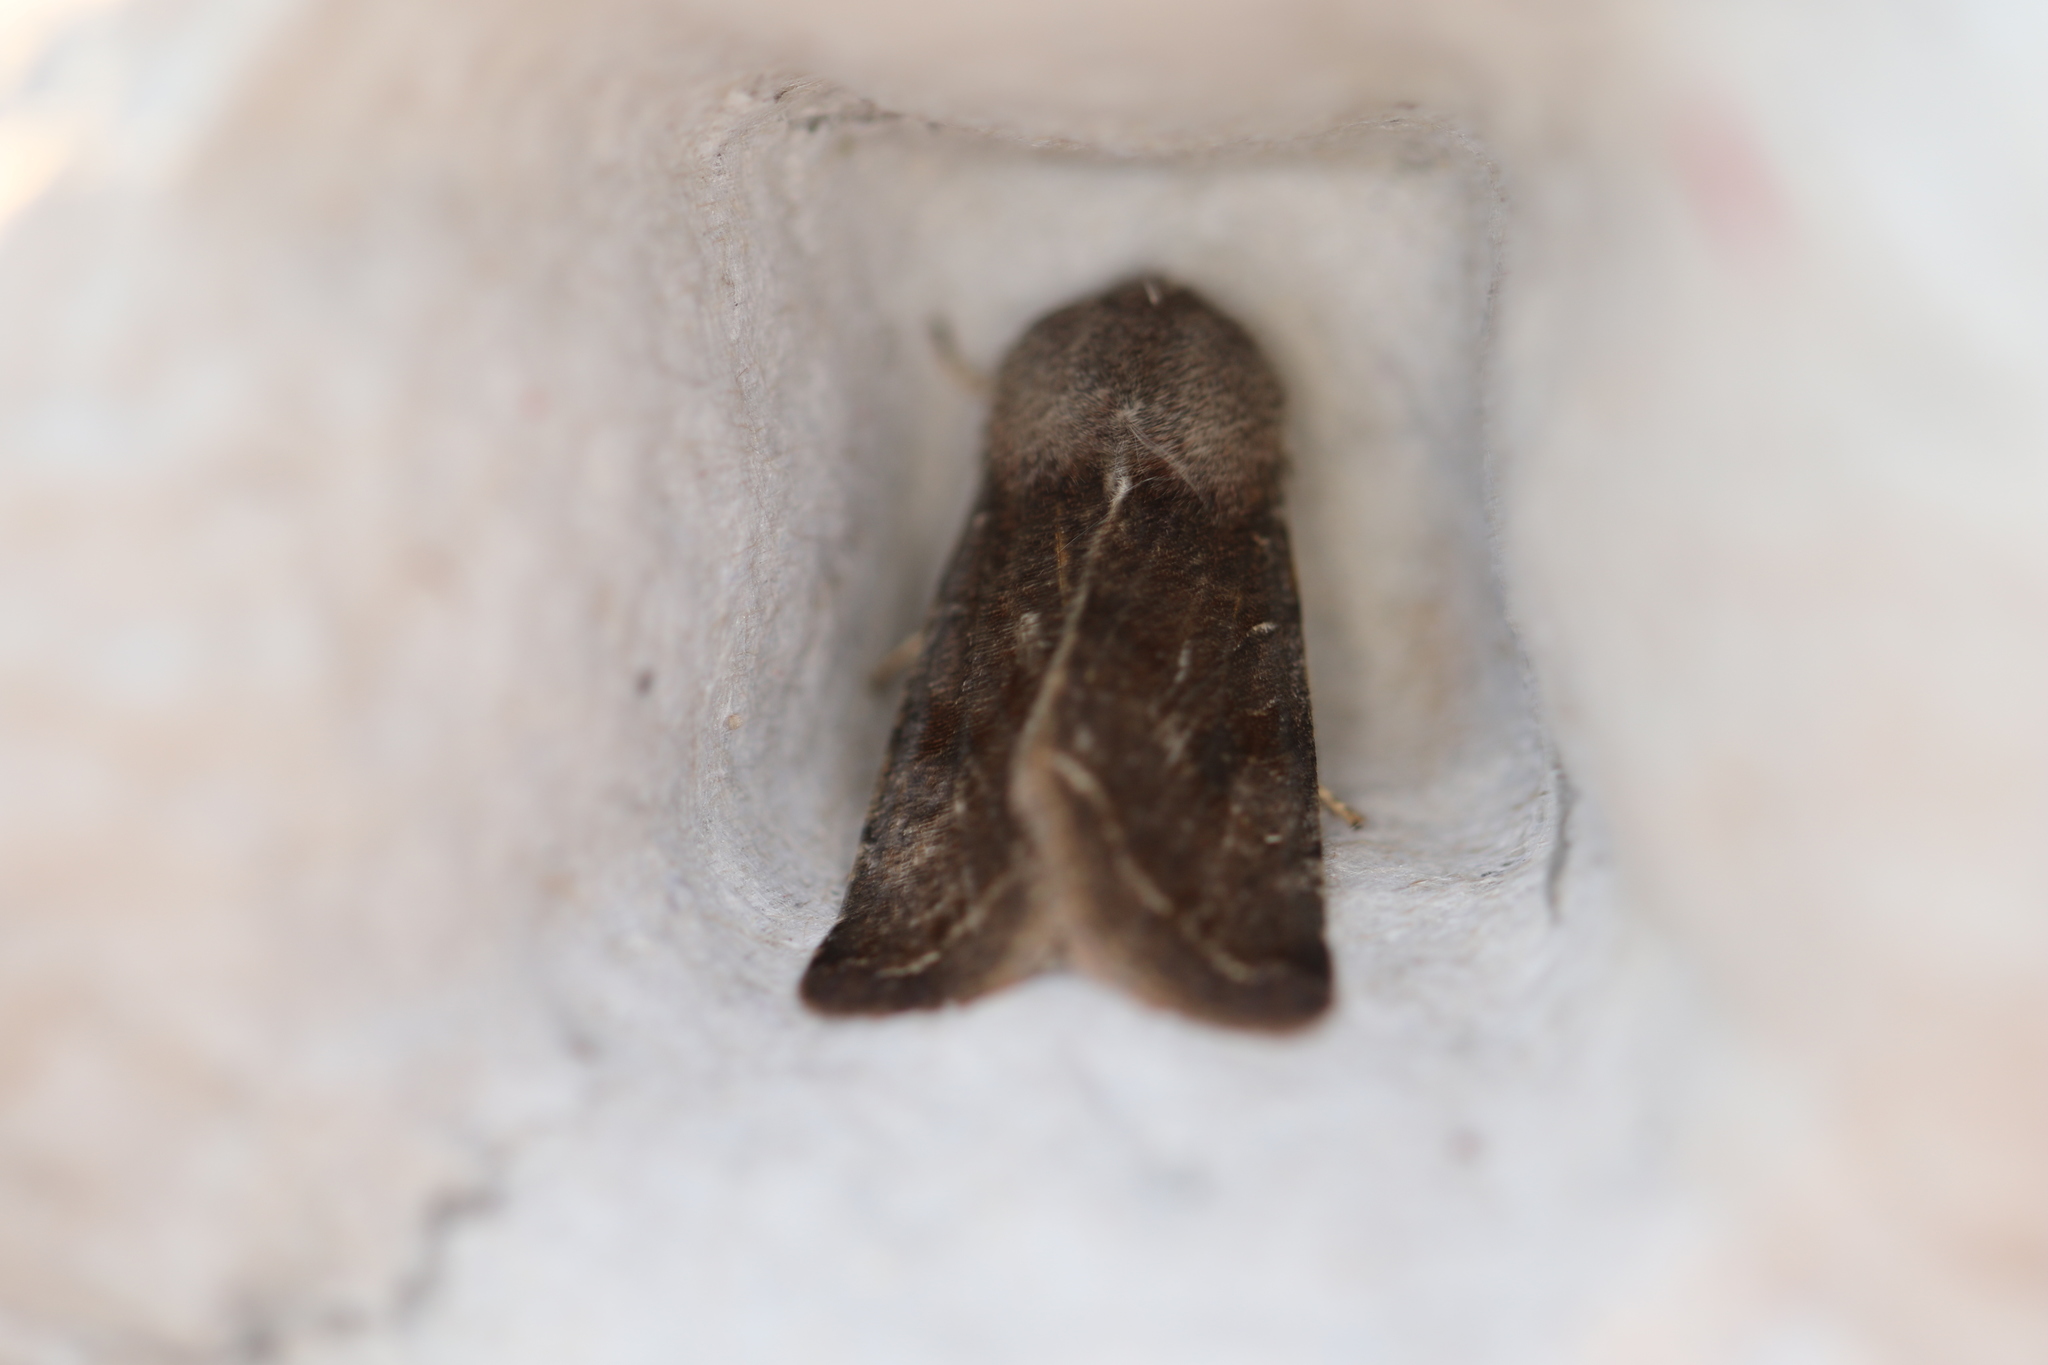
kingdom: Animalia
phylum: Arthropoda
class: Insecta
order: Lepidoptera
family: Noctuidae
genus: Orthosia
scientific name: Orthosia incerta
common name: Clouded drab
